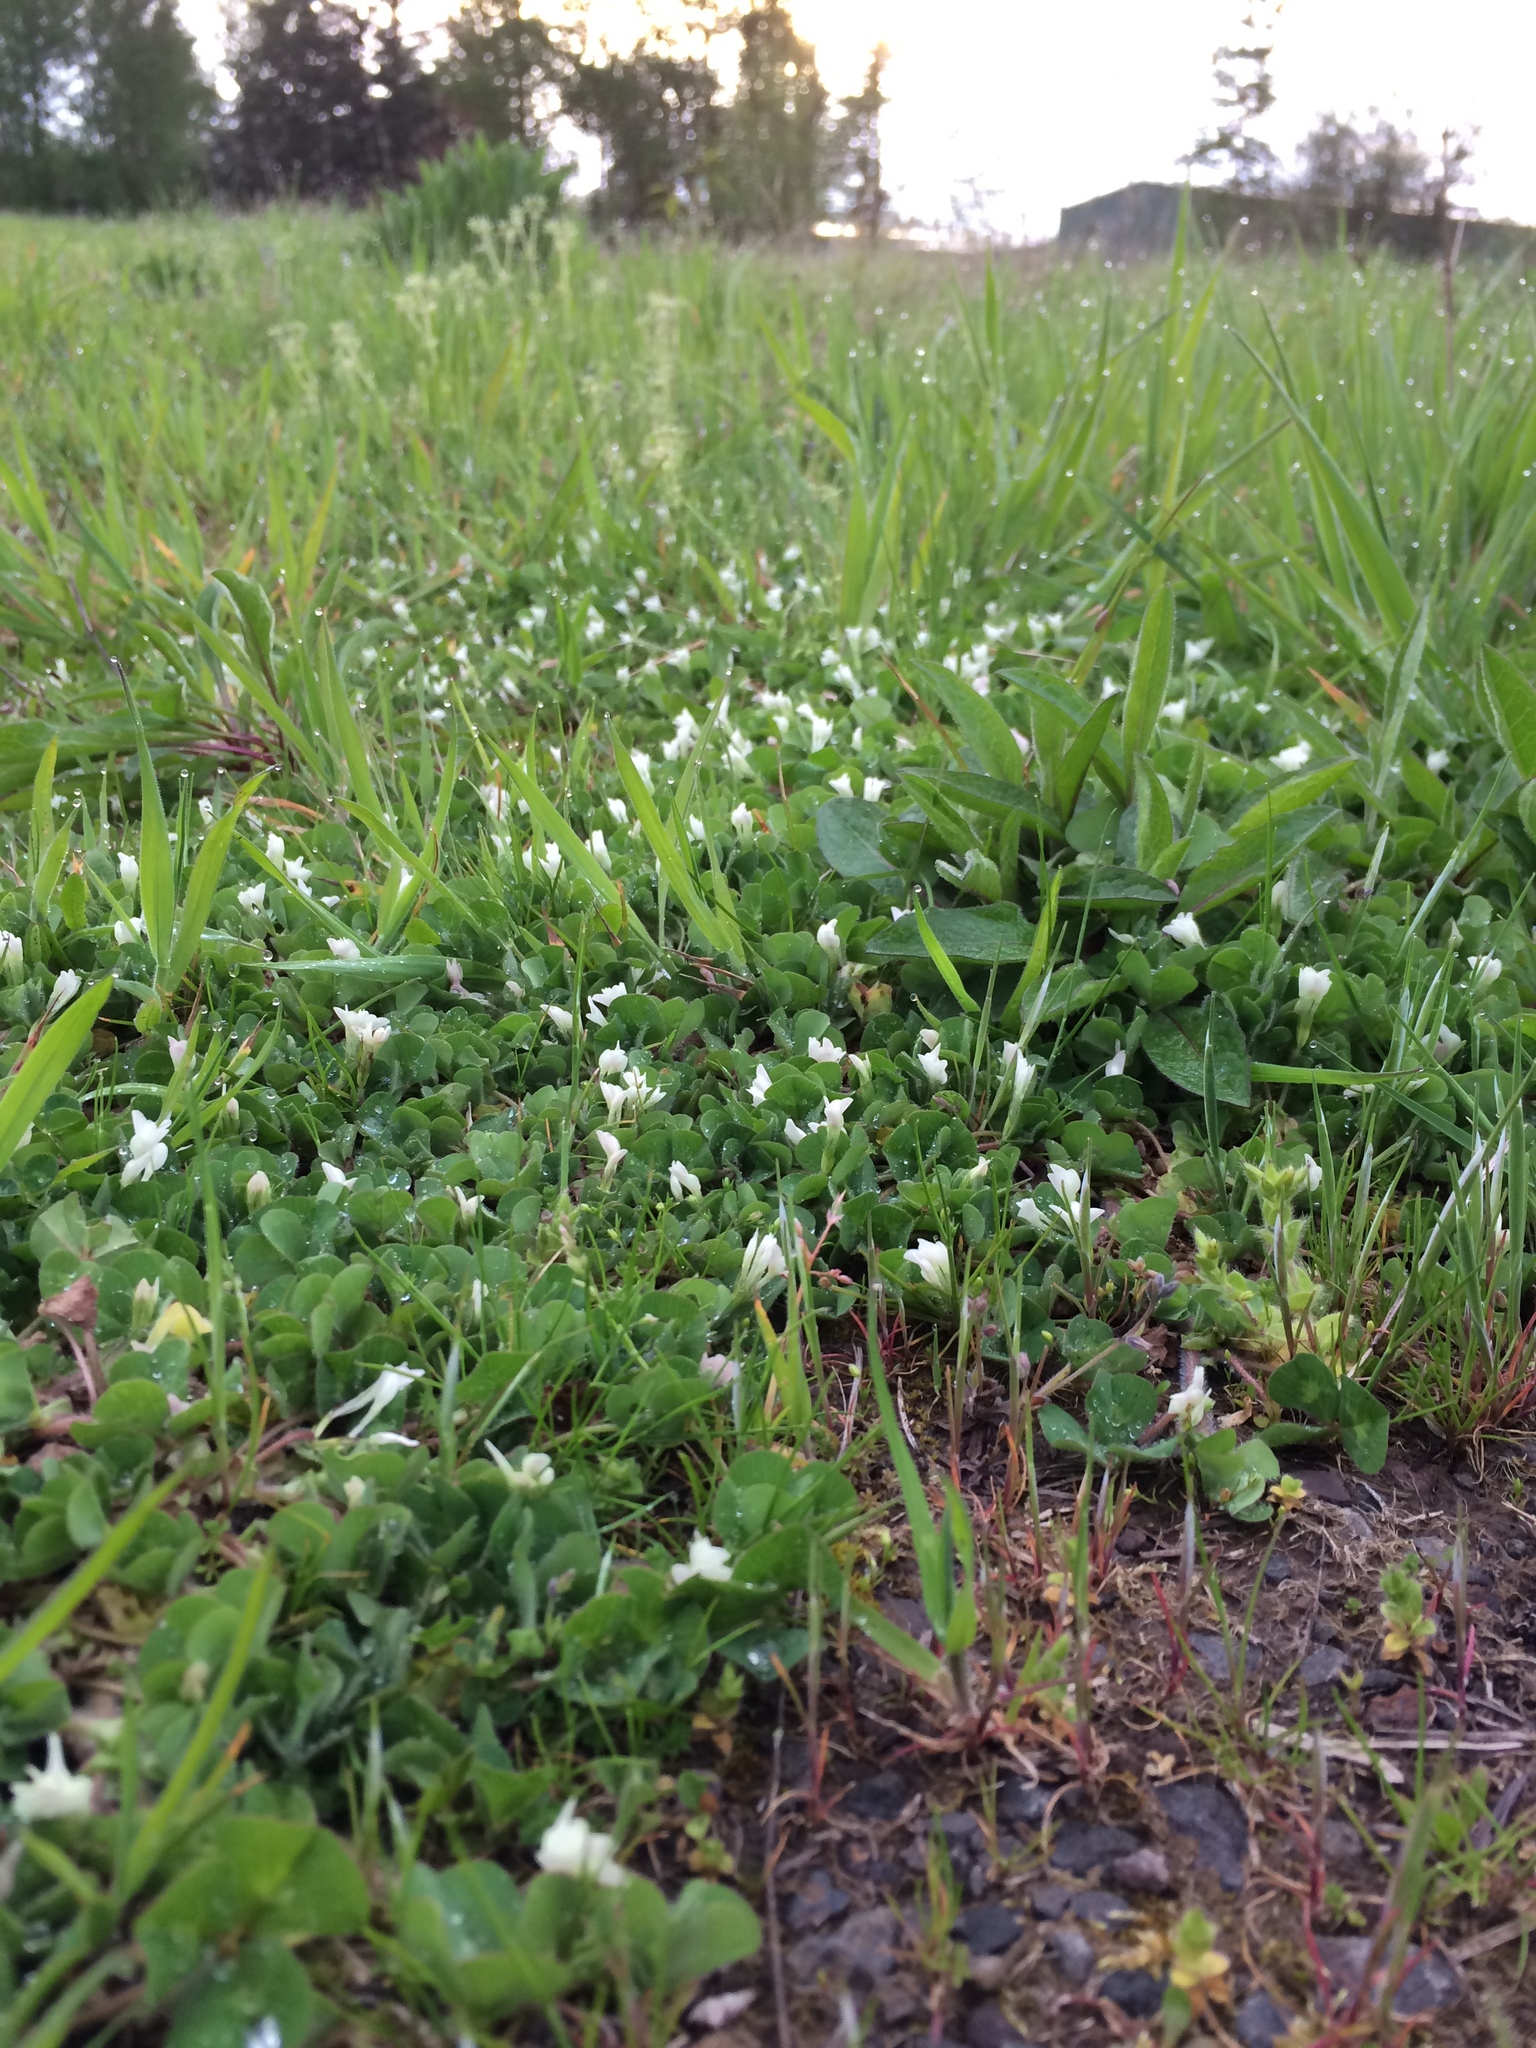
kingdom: Plantae
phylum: Tracheophyta
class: Magnoliopsida
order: Fabales
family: Fabaceae
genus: Trifolium
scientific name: Trifolium subterraneum
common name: Subterranean clover
